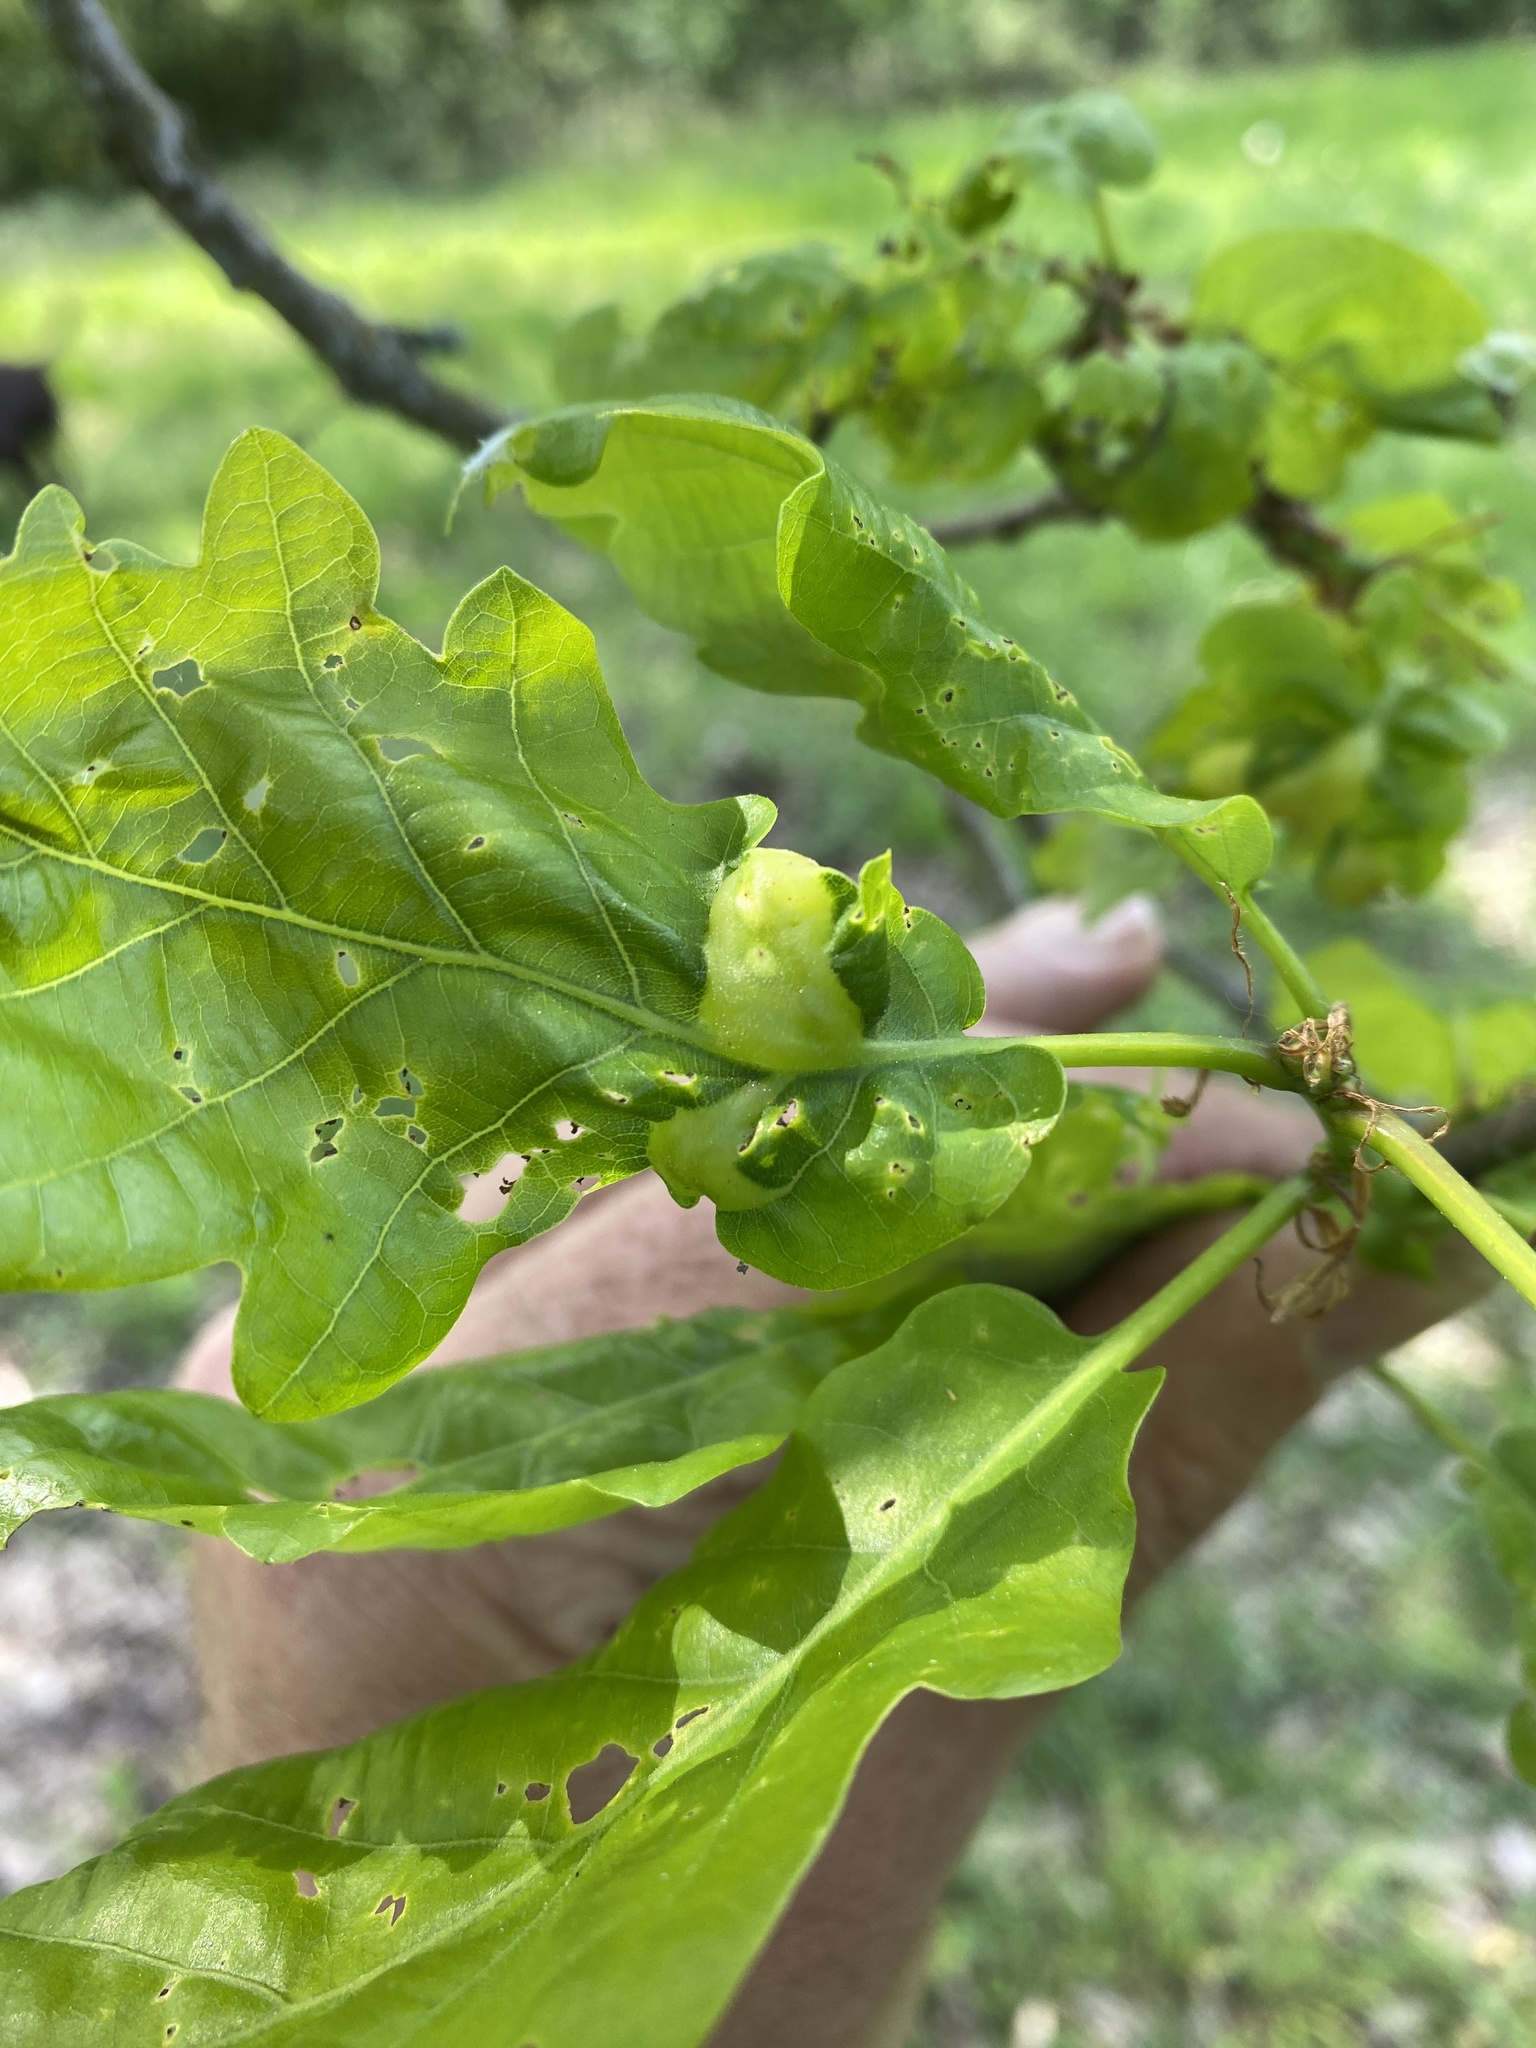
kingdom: Animalia
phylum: Arthropoda
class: Insecta
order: Hymenoptera
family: Cynipidae
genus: Andricus
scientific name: Andricus curvator
